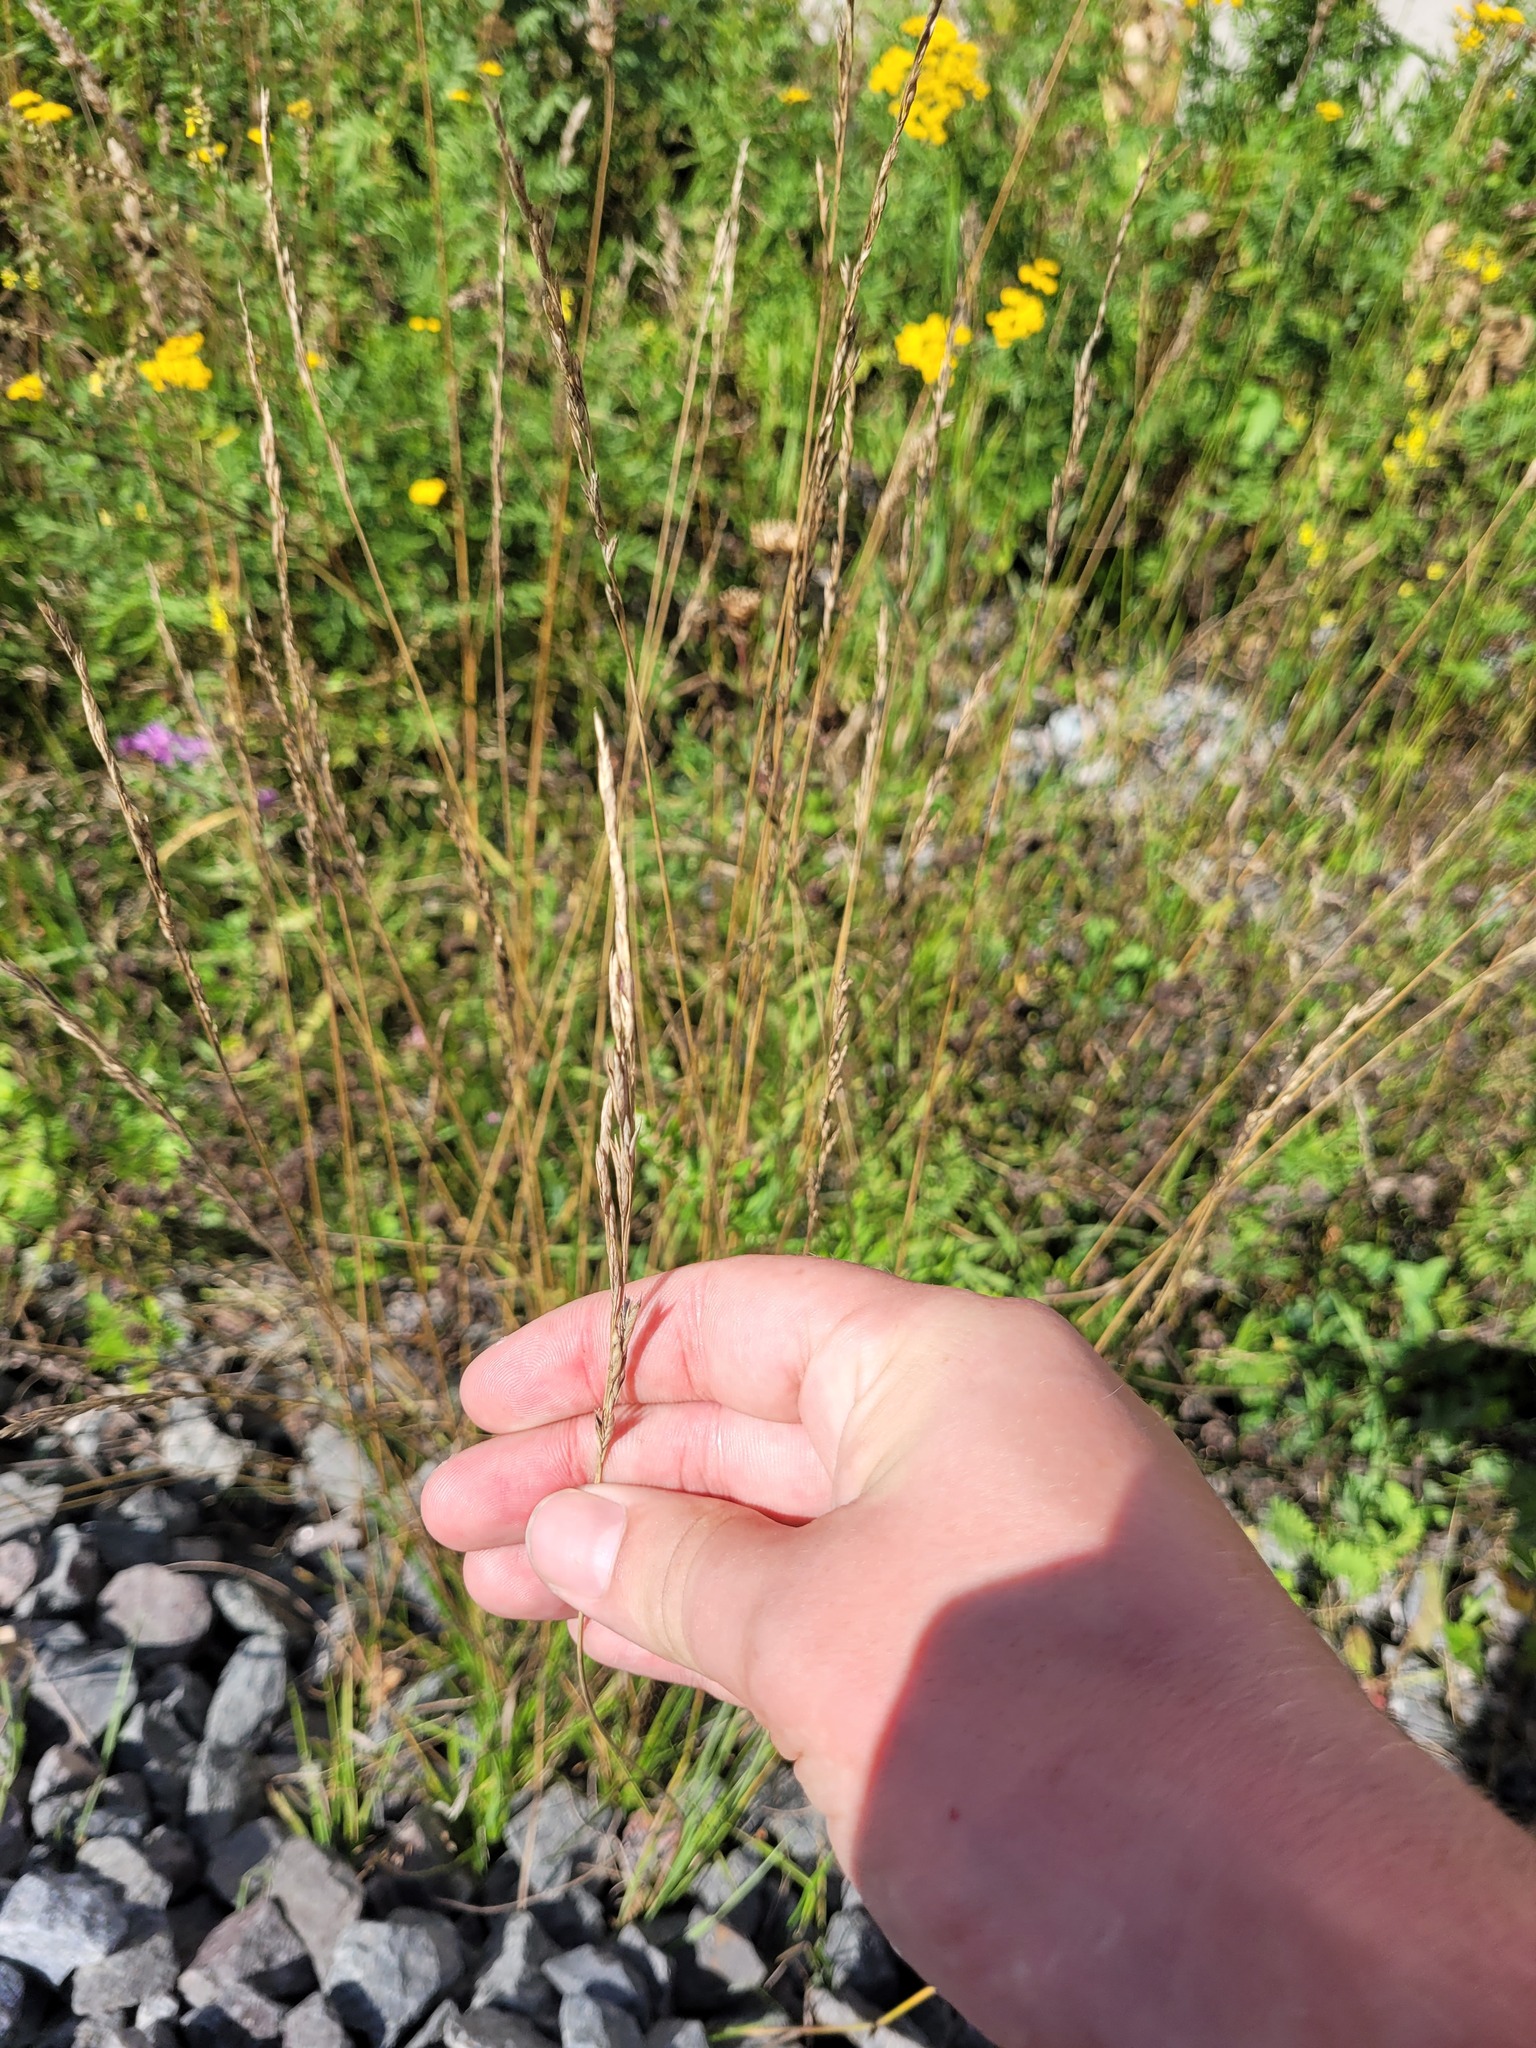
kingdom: Plantae
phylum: Tracheophyta
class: Liliopsida
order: Poales
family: Poaceae
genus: Lolium
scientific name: Lolium pratense
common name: Dover grass
